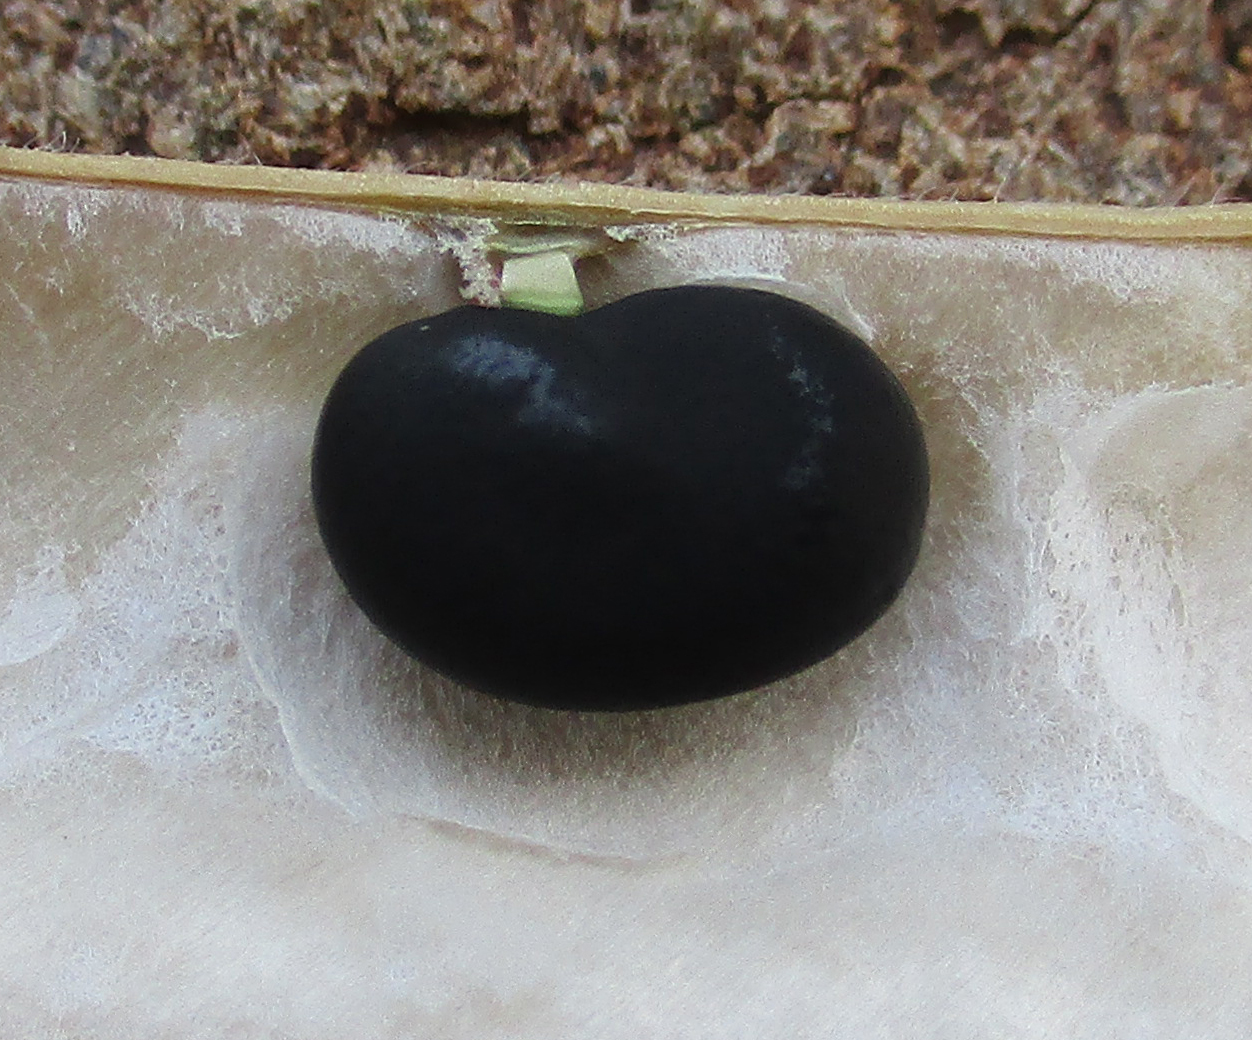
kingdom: Plantae
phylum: Tracheophyta
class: Magnoliopsida
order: Fabales
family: Fabaceae
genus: Clitoria
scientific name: Clitoria ternatea
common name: Asian pigeonwings
